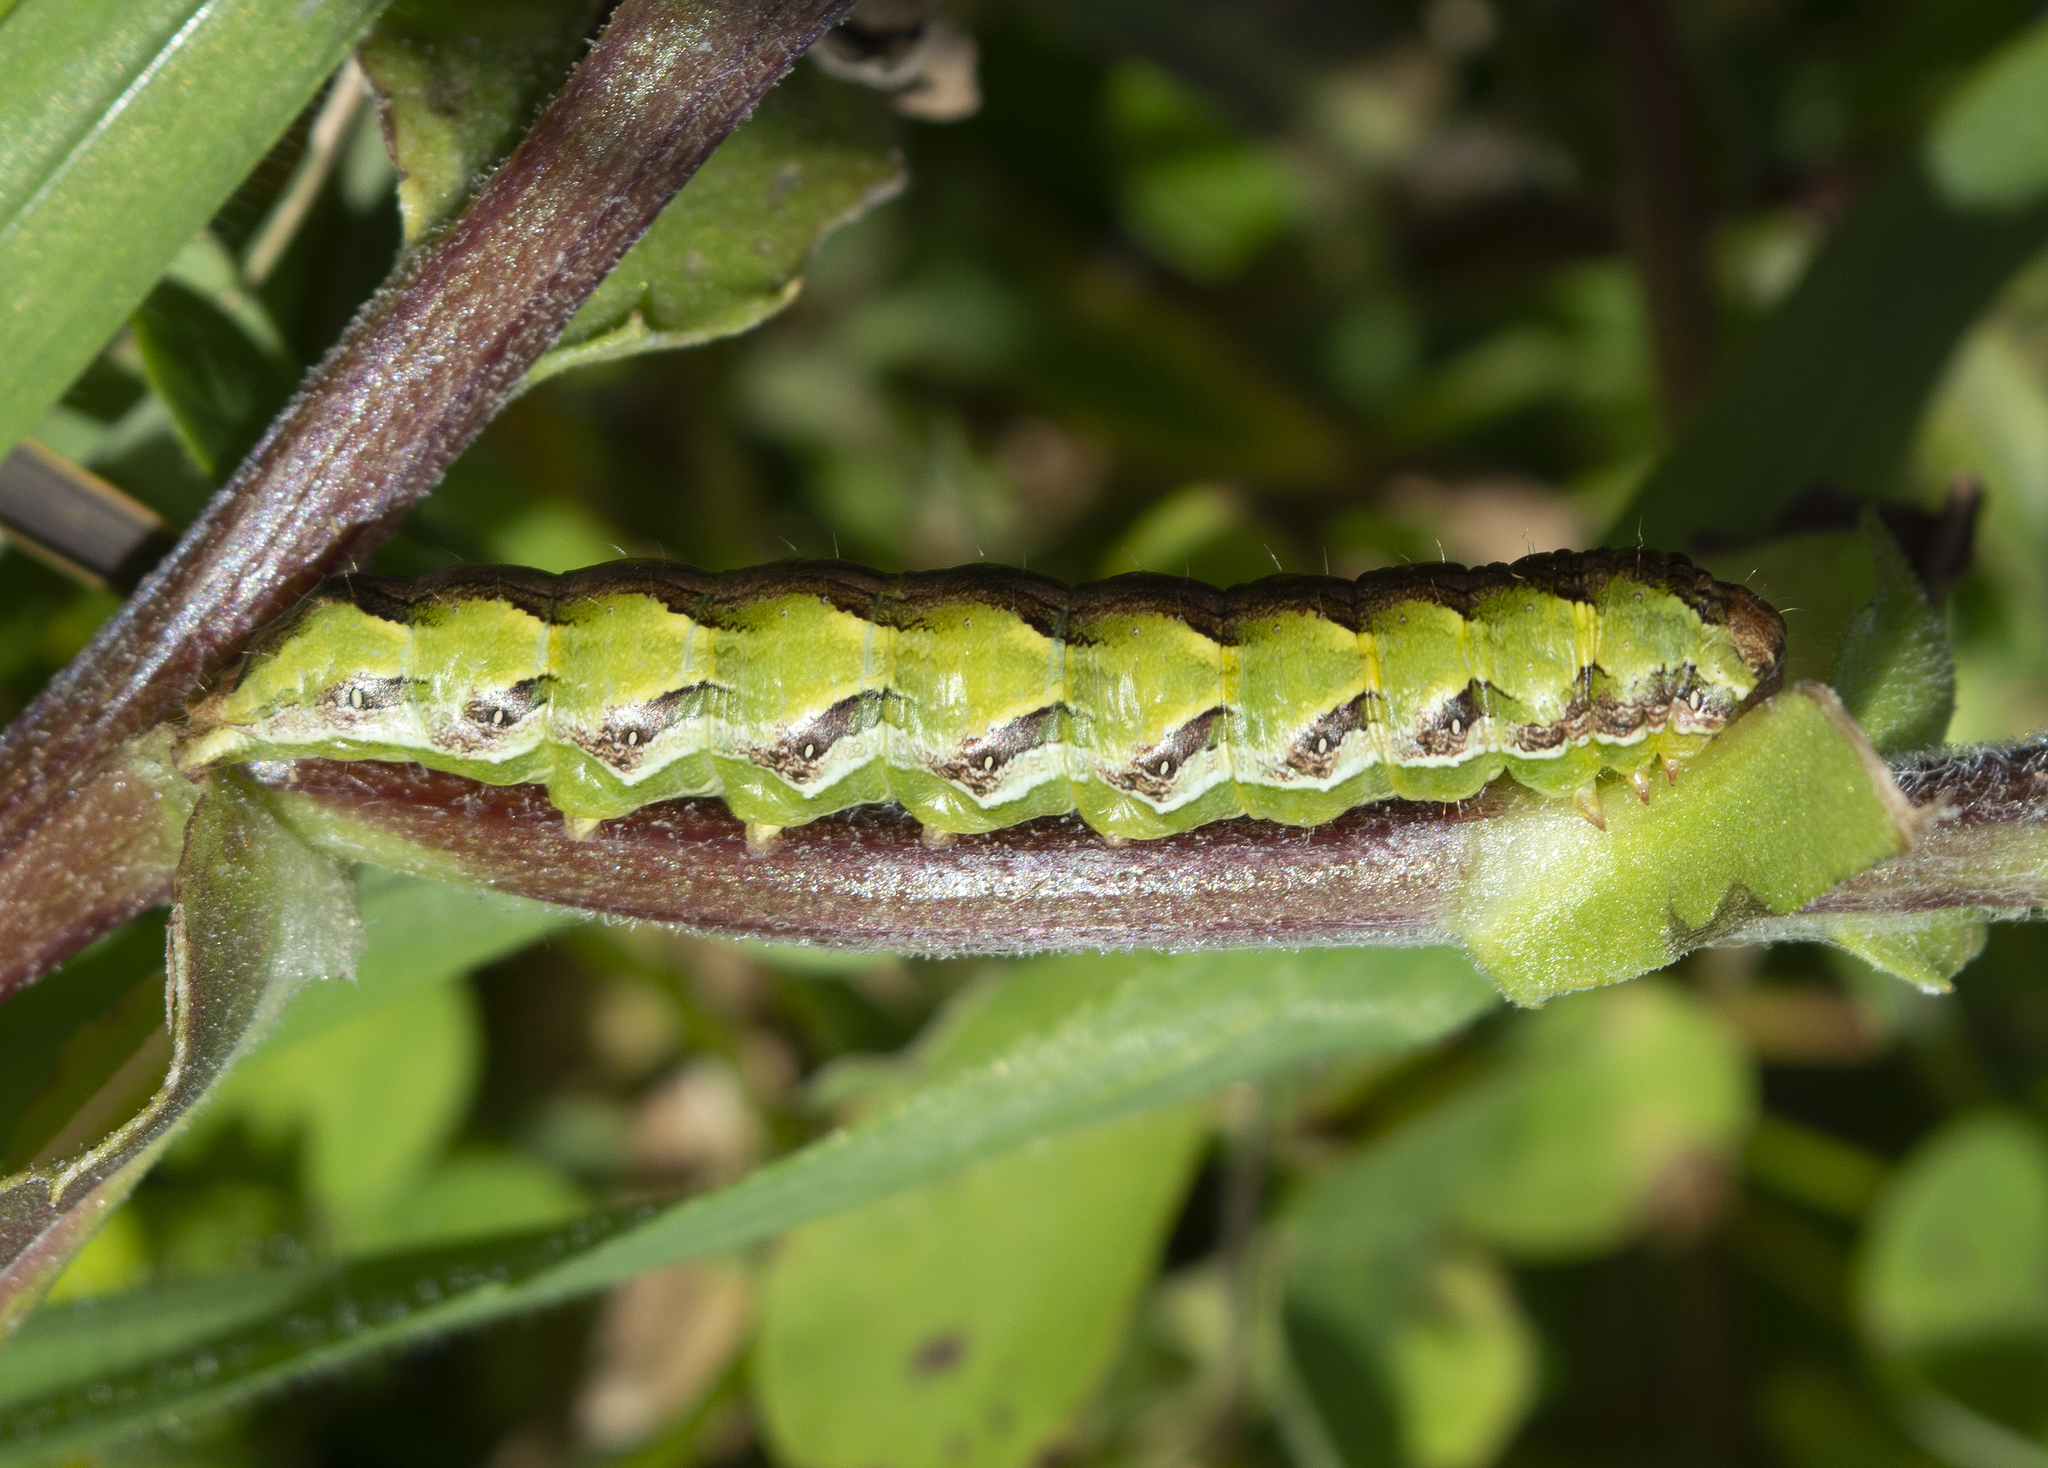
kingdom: Animalia
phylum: Arthropoda
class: Insecta
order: Lepidoptera
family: Noctuidae
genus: Cucullia
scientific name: Cucullia calendulae
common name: Marigold shark
